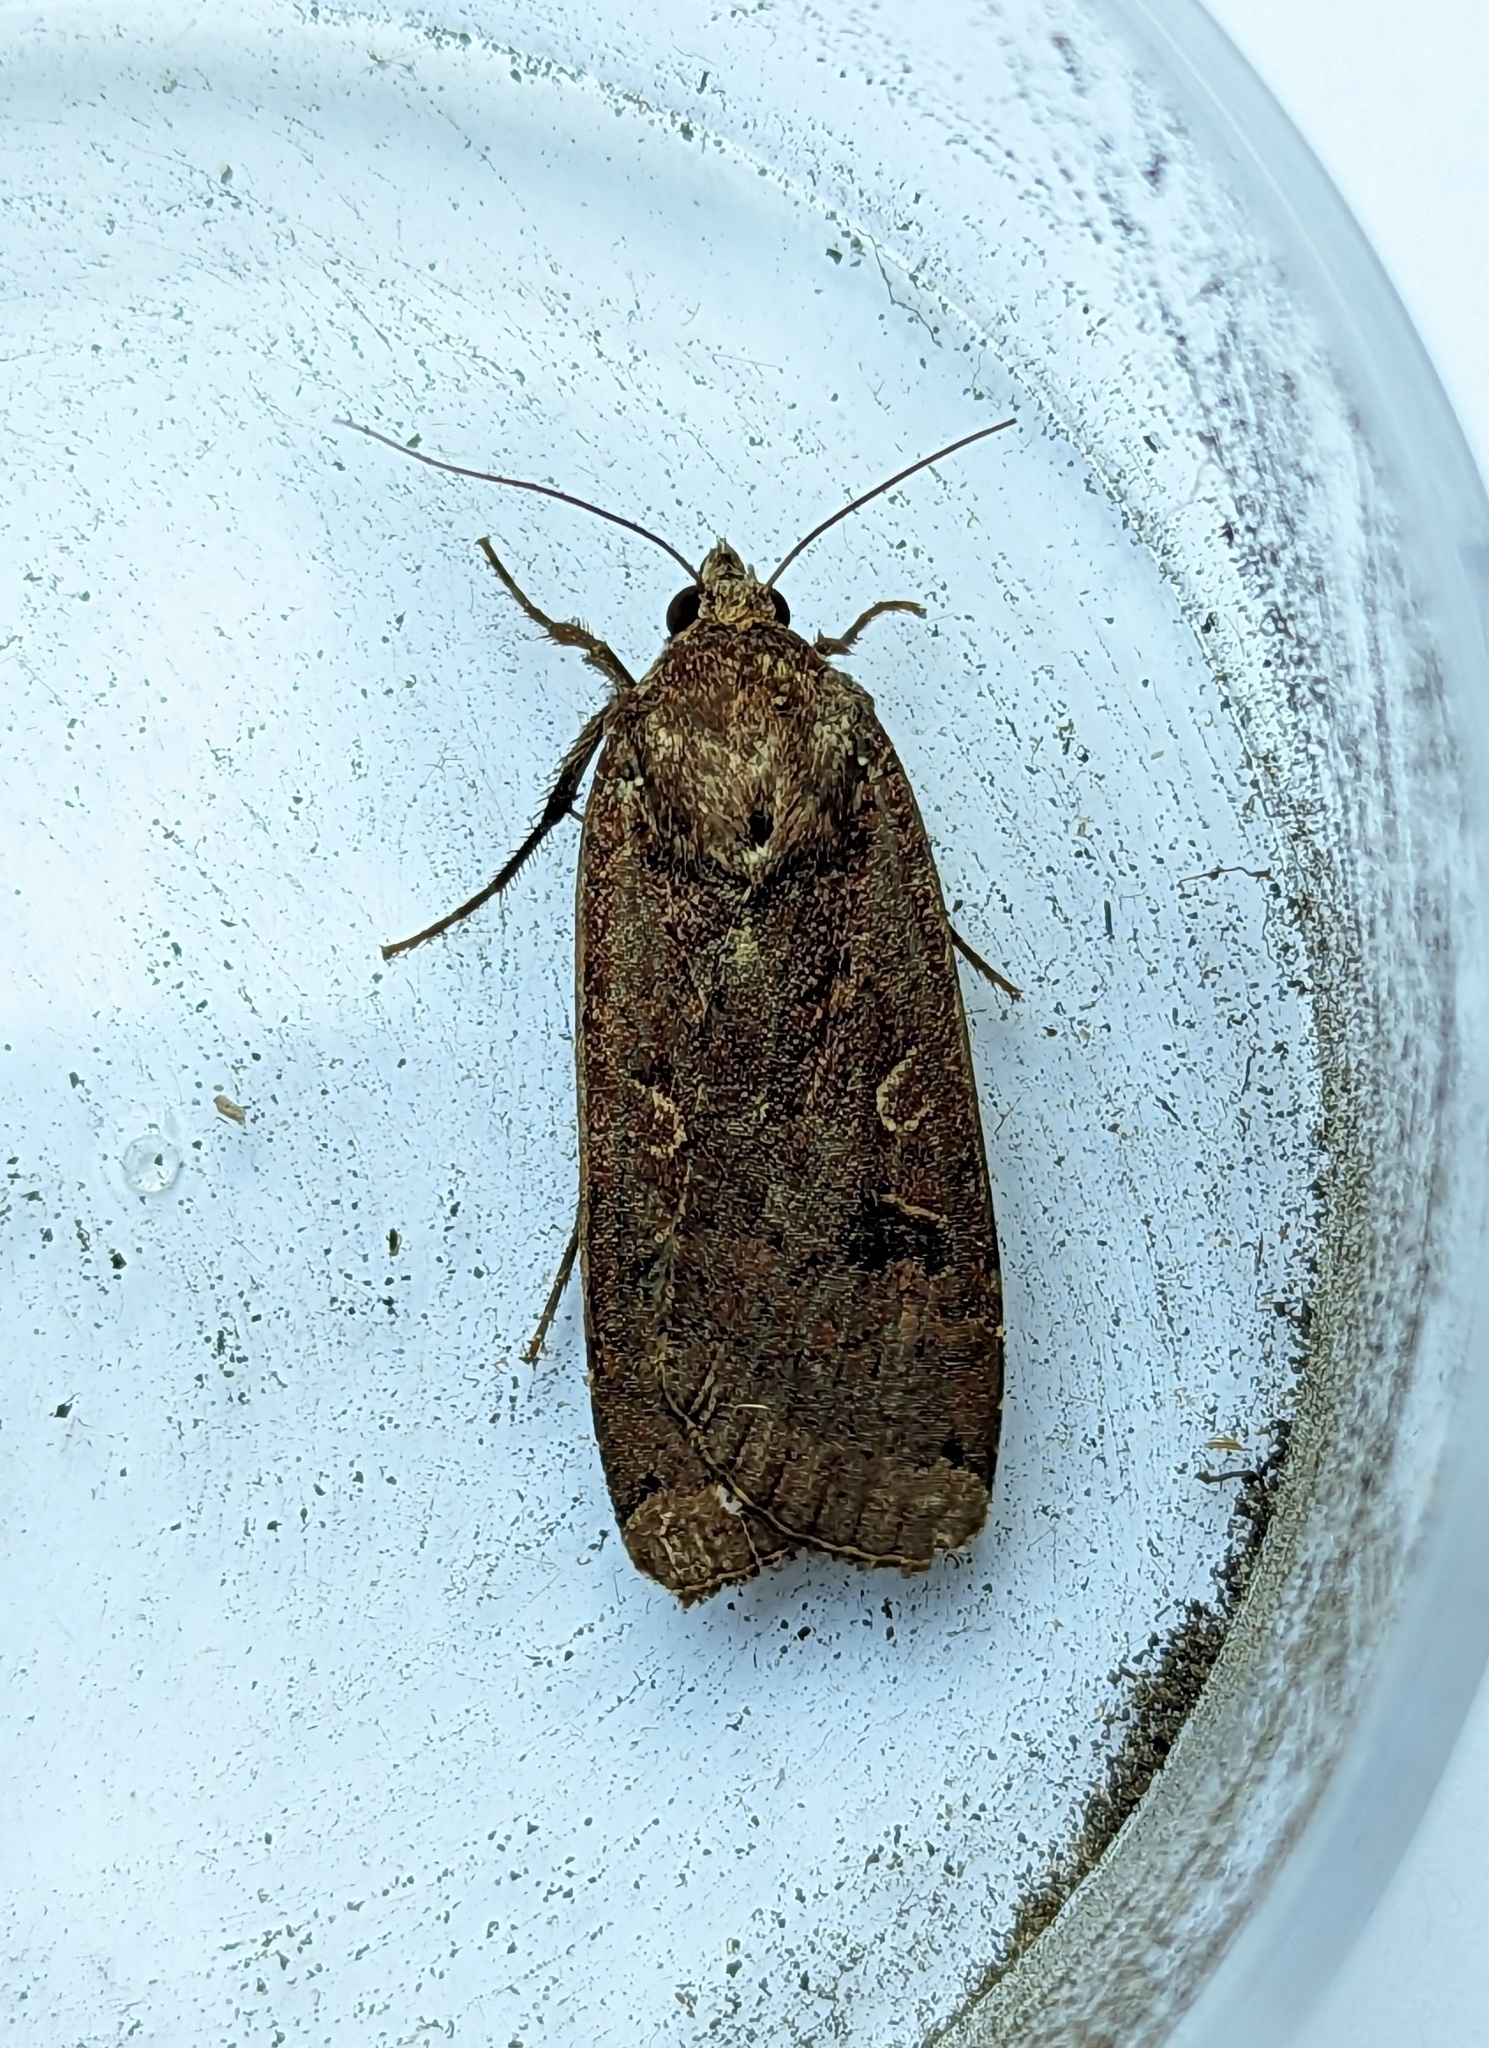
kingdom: Animalia
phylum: Arthropoda
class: Insecta
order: Lepidoptera
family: Noctuidae
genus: Noctua
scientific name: Noctua pronuba
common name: Large yellow underwing
